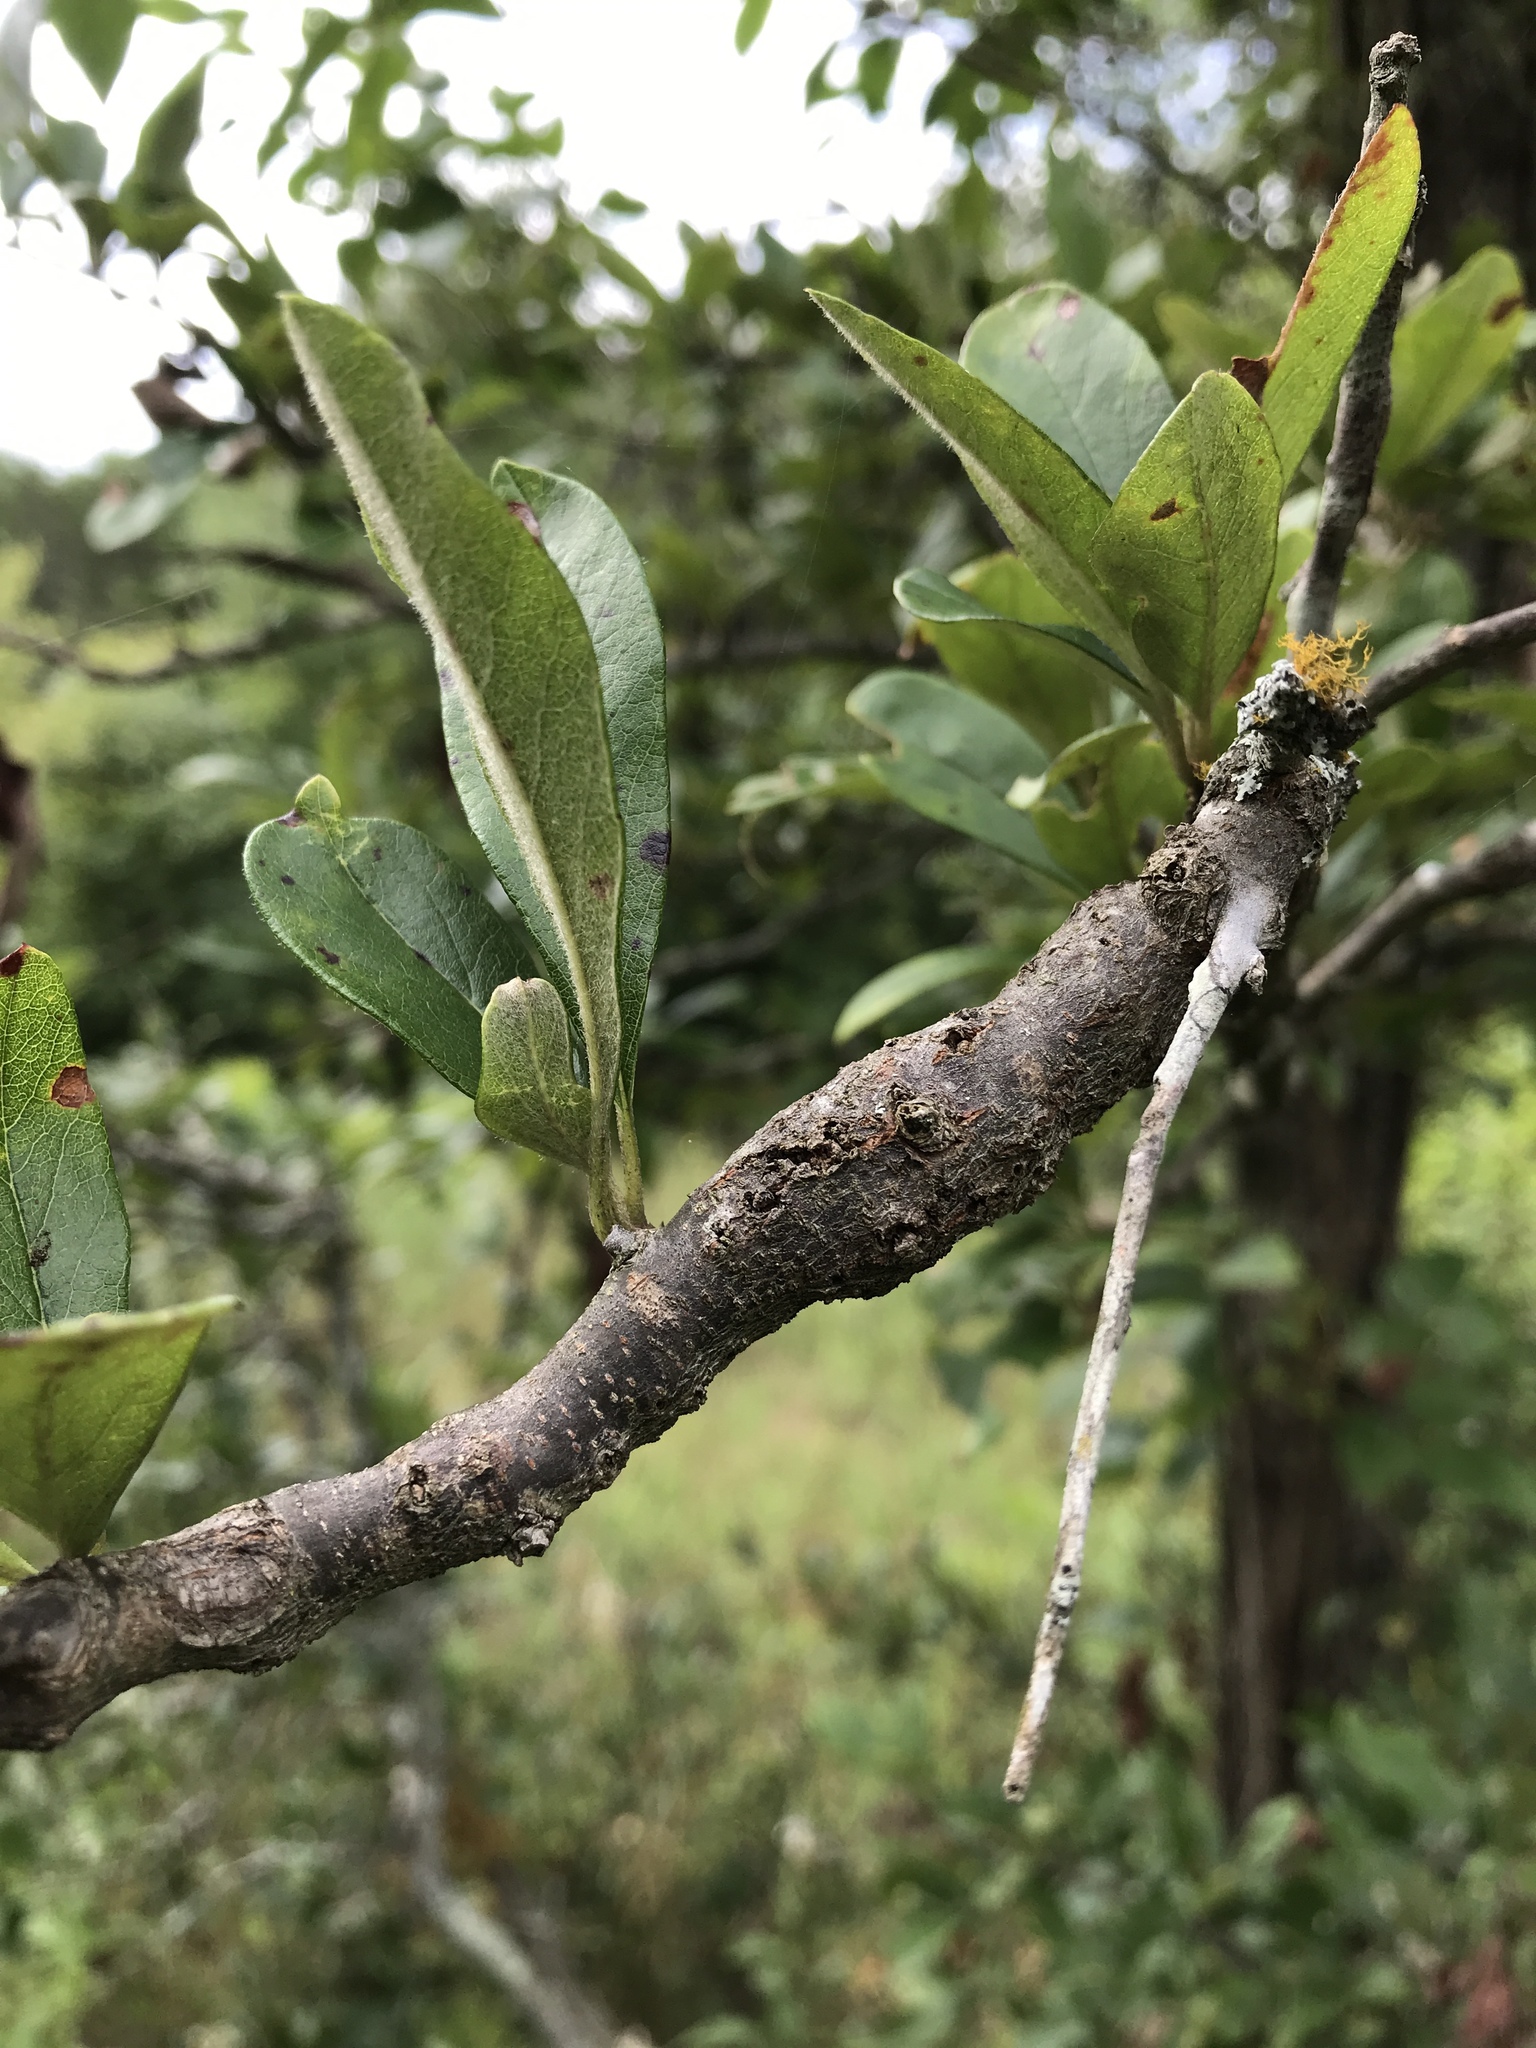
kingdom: Animalia
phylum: Arthropoda
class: Insecta
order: Diptera
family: Cecidomyiidae
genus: Bruggmanniella
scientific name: Bruggmanniella bumeliae
